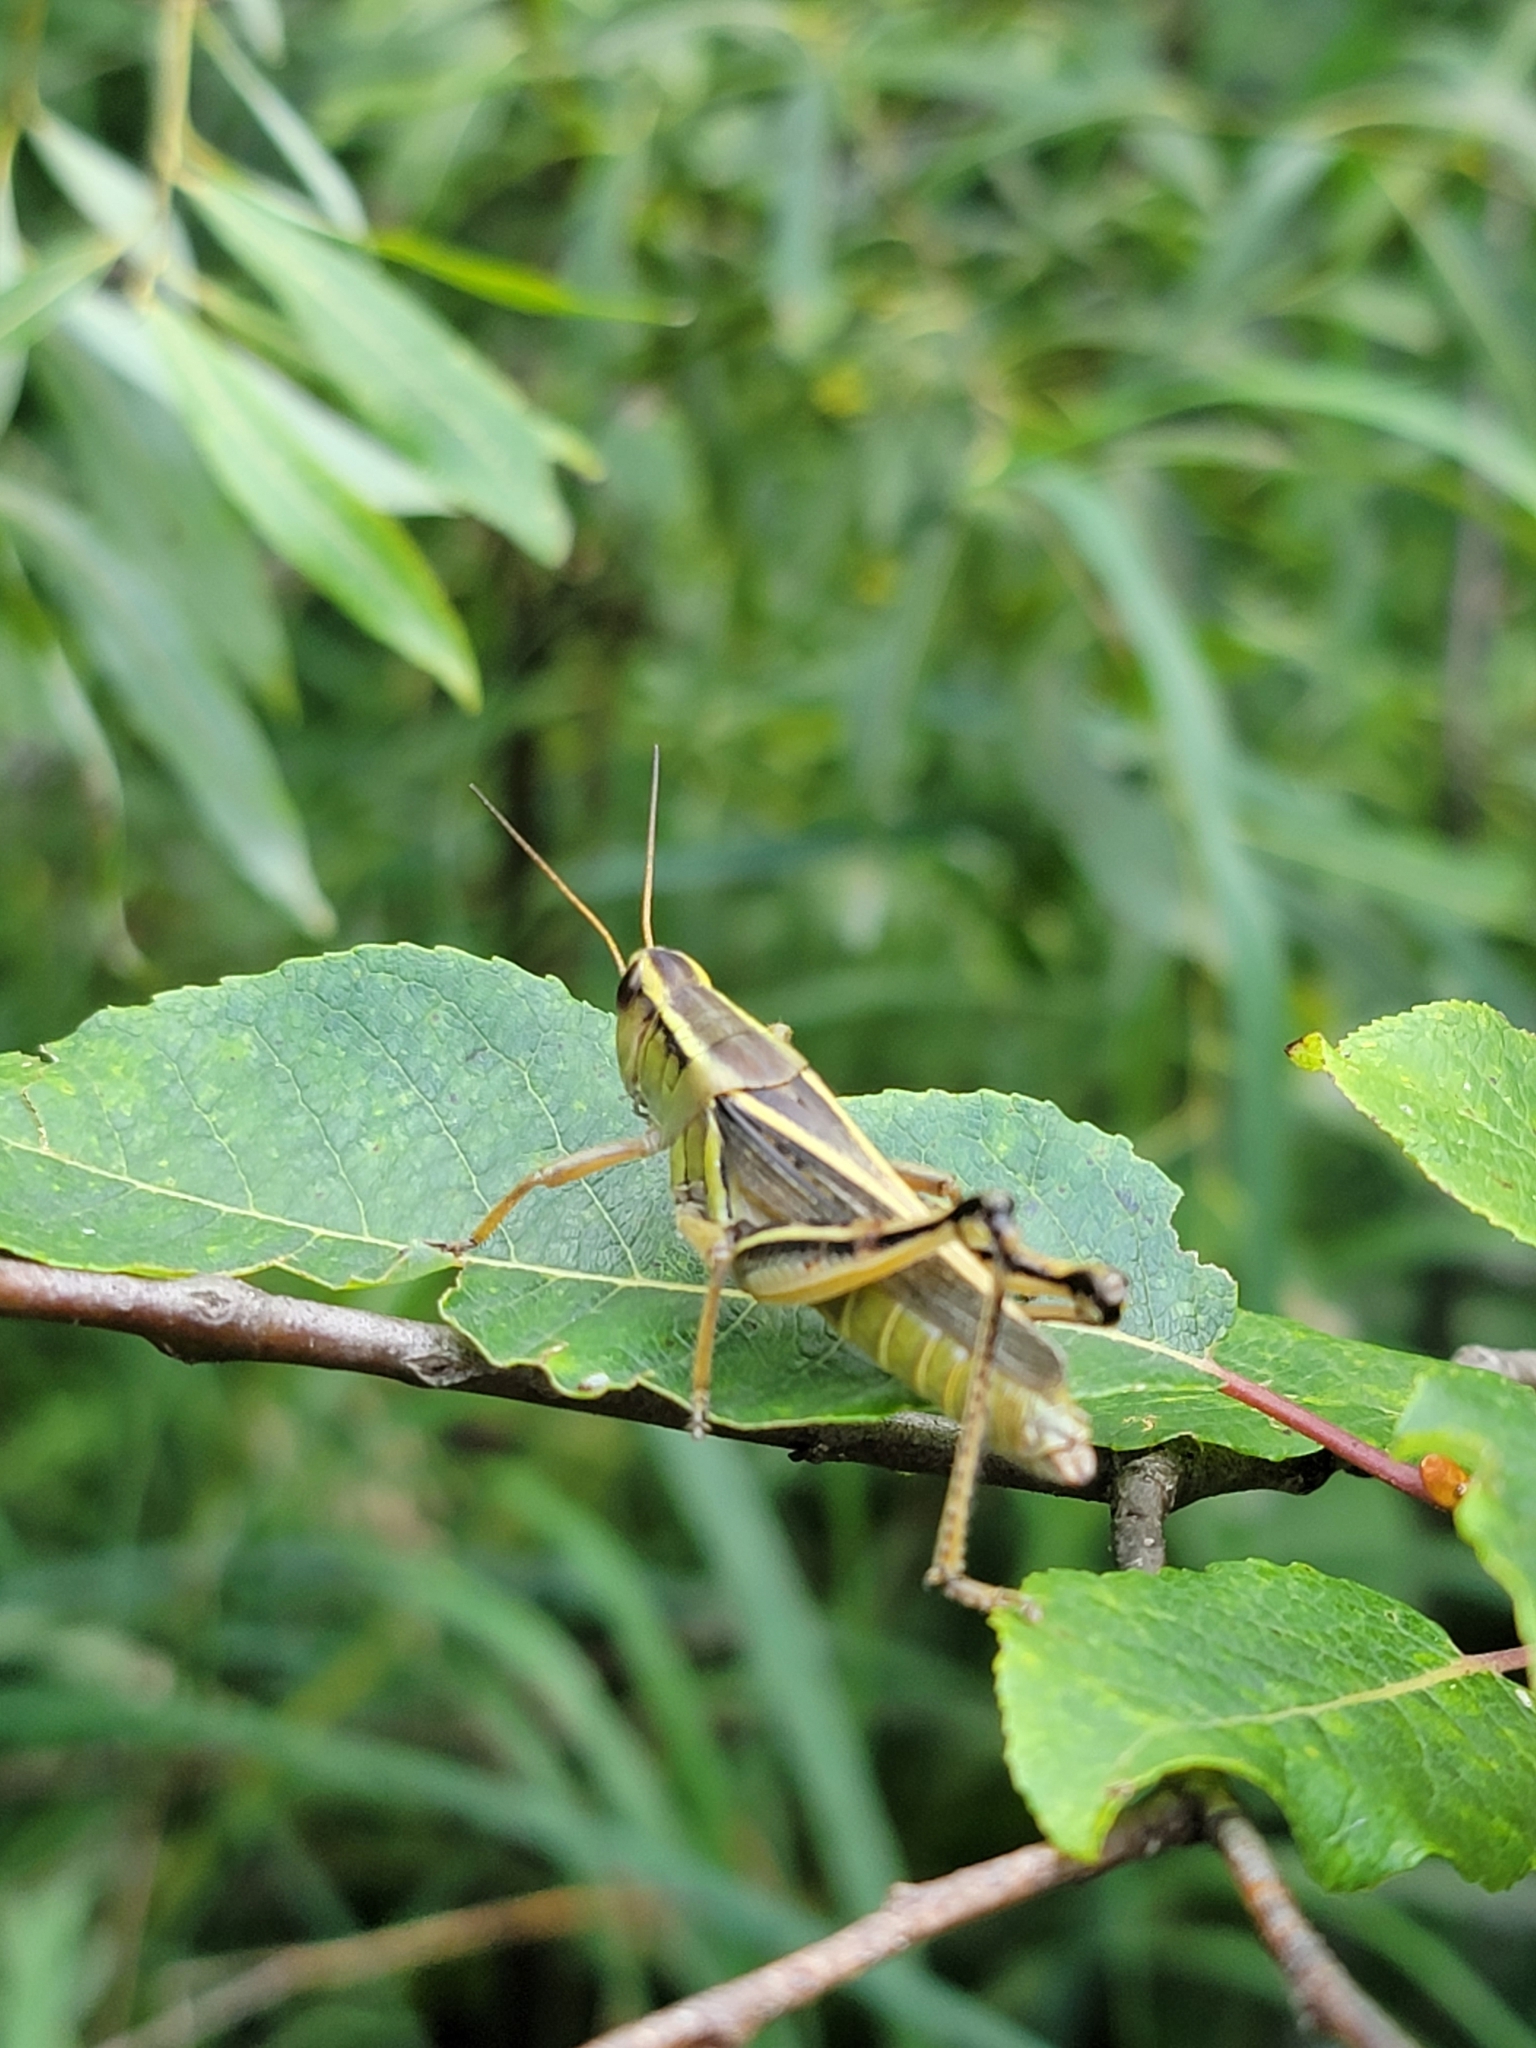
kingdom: Animalia
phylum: Arthropoda
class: Insecta
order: Orthoptera
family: Acrididae
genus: Melanoplus
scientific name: Melanoplus bivittatus
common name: Two-striped grasshopper
